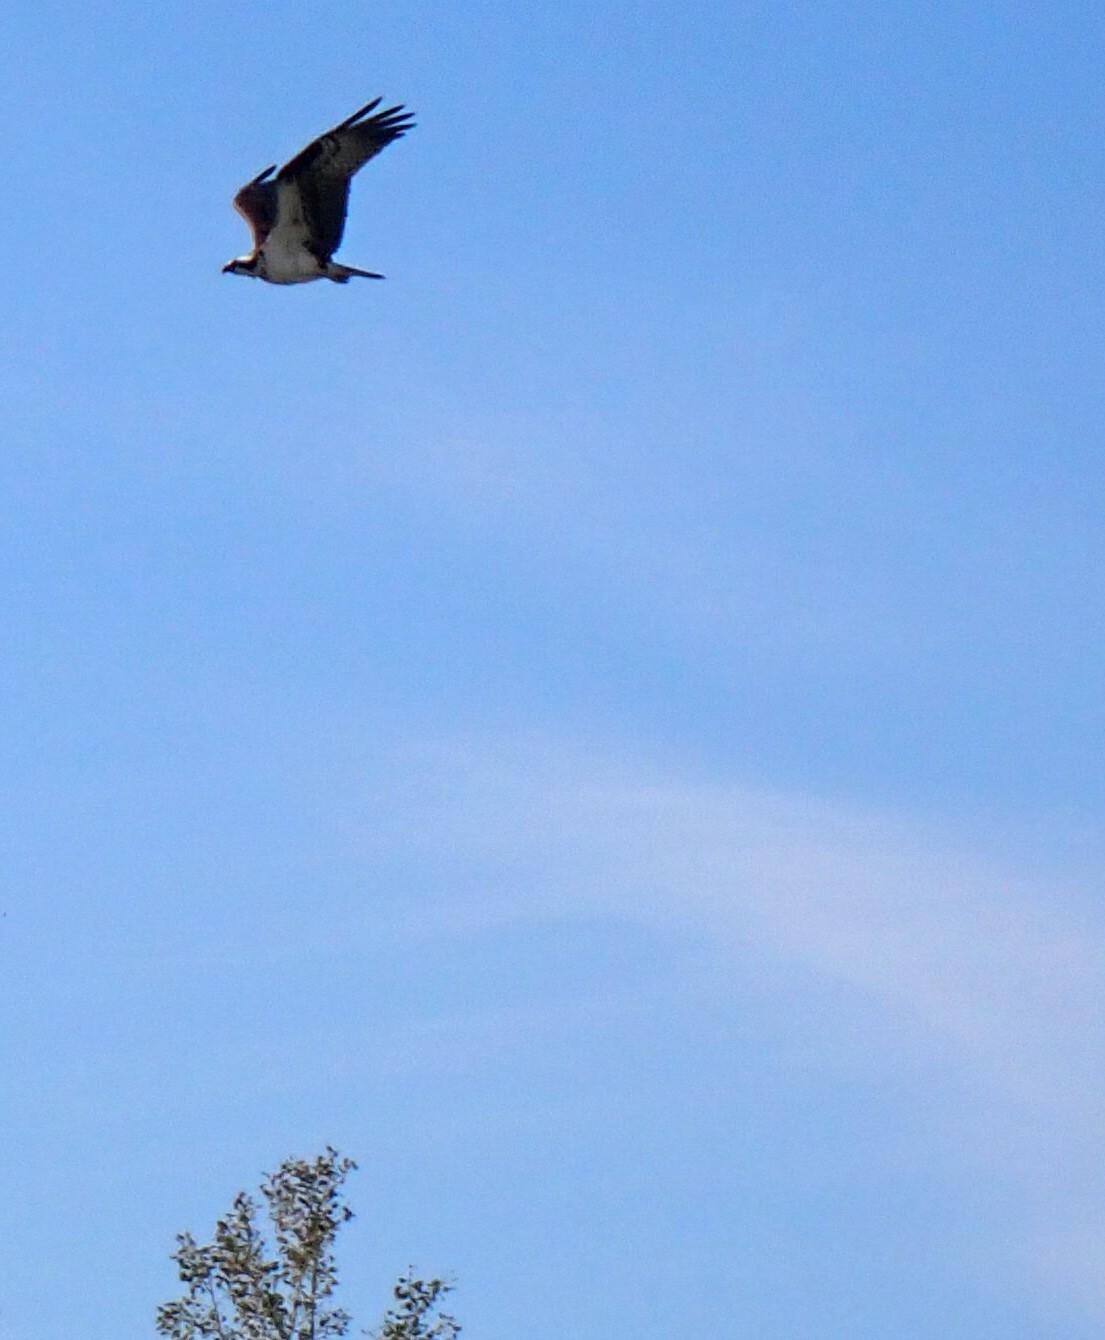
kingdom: Animalia
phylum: Chordata
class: Aves
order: Accipitriformes
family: Pandionidae
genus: Pandion
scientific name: Pandion haliaetus
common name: Osprey
